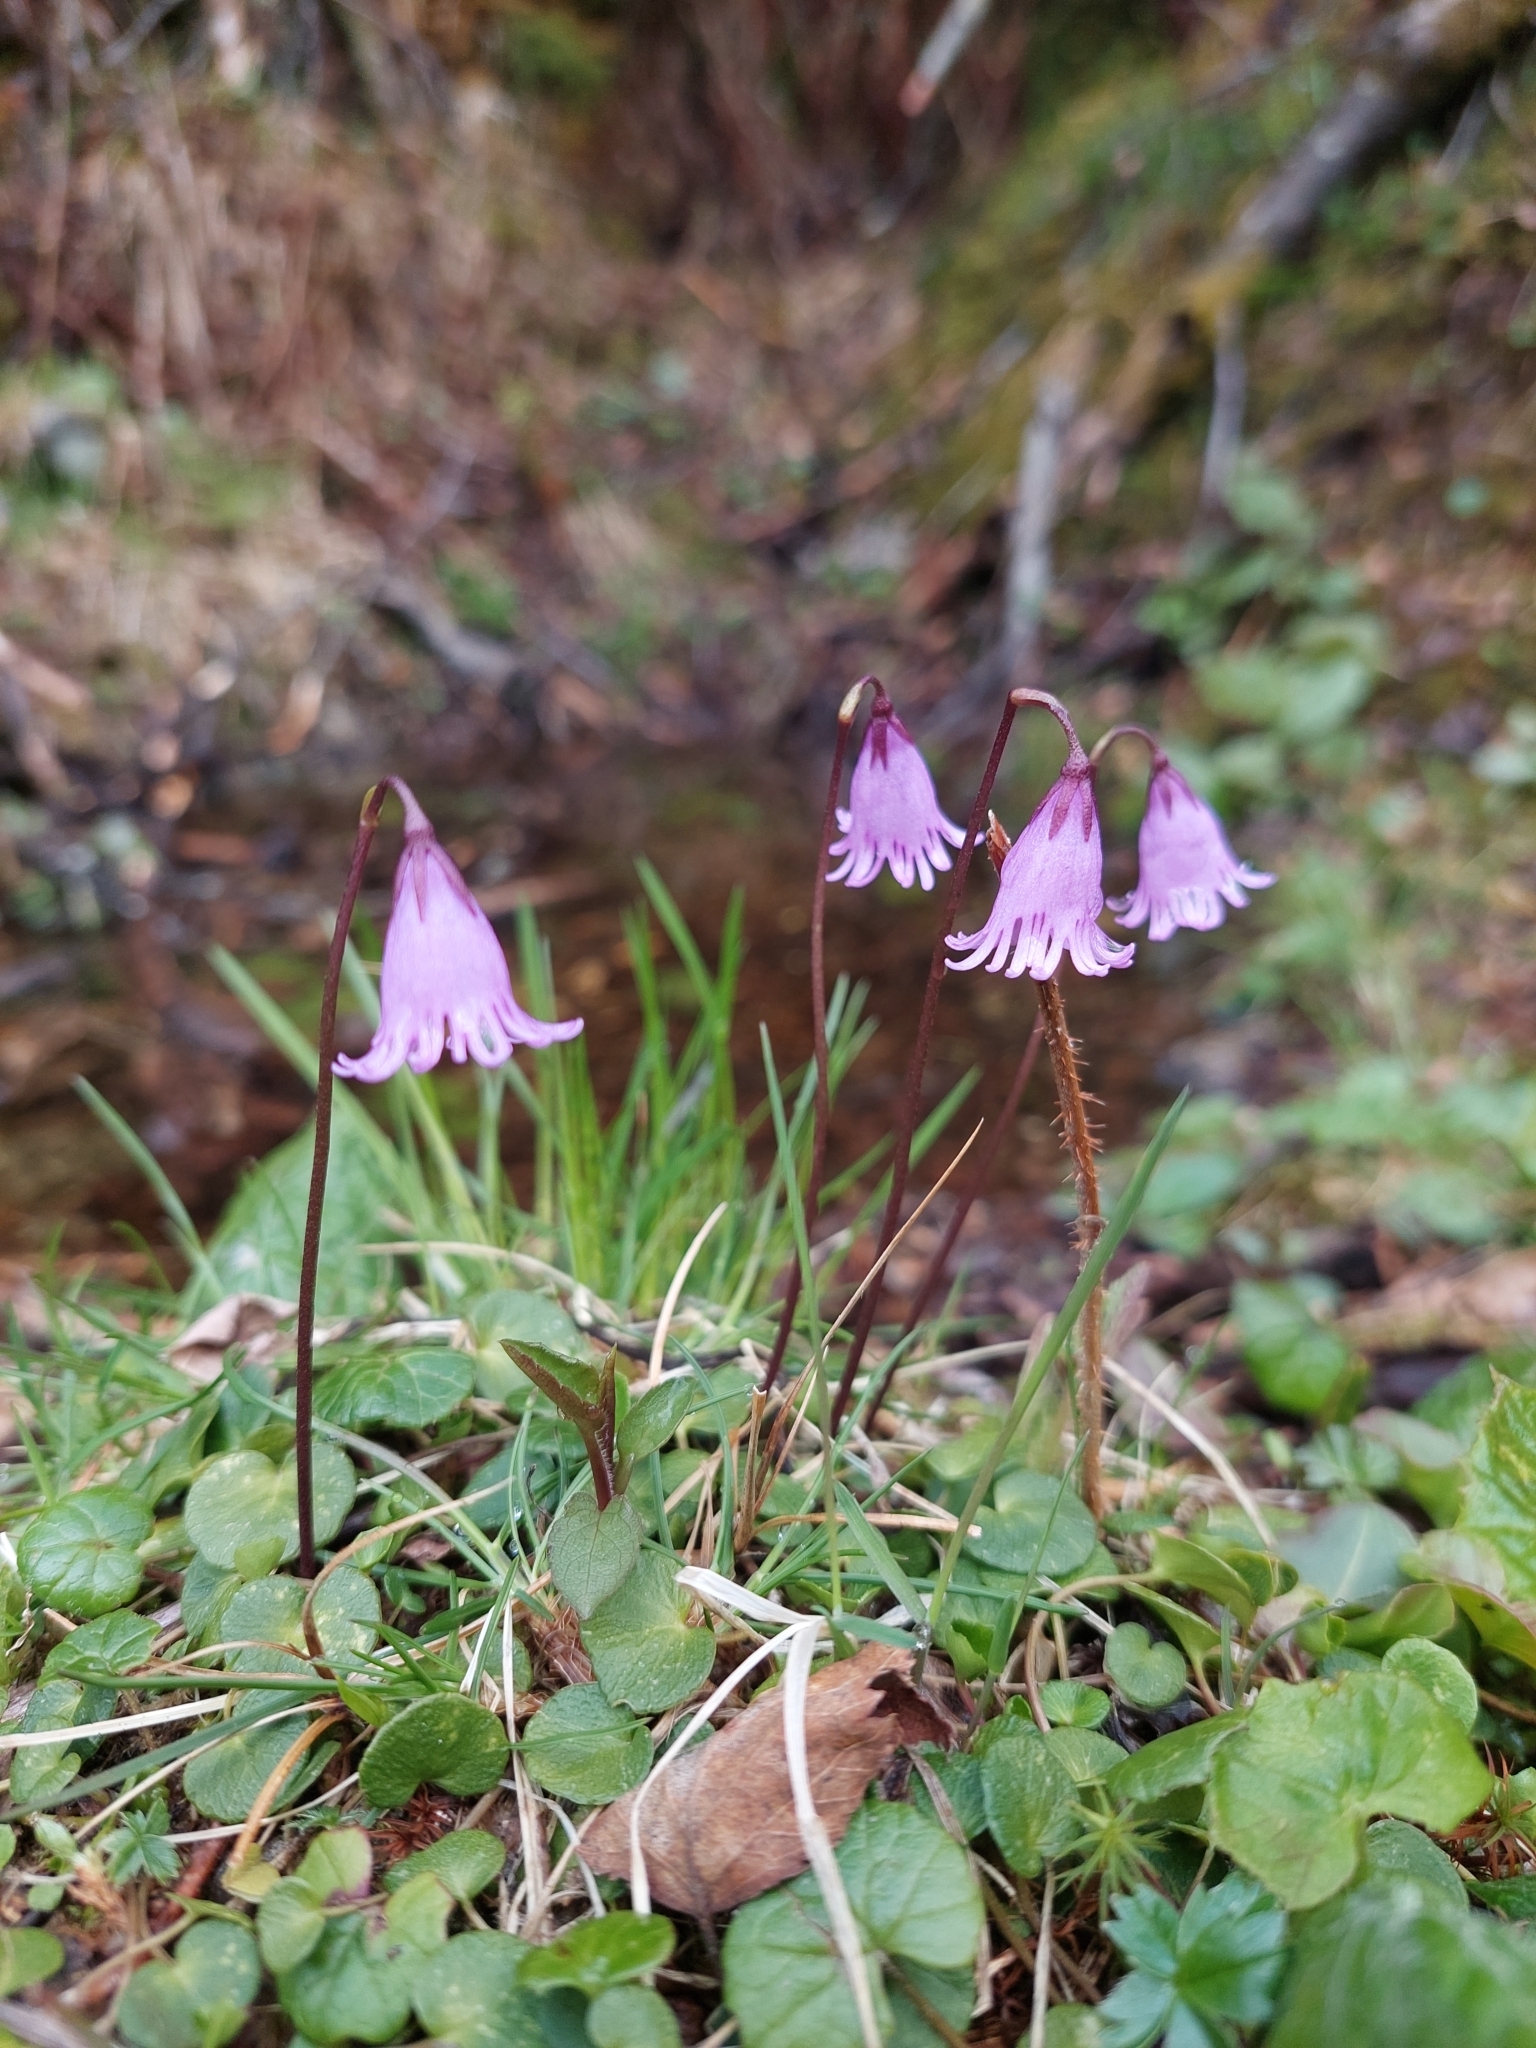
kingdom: Plantae
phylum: Tracheophyta
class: Magnoliopsida
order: Ericales
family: Primulaceae
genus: Soldanella
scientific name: Soldanella alpicola
